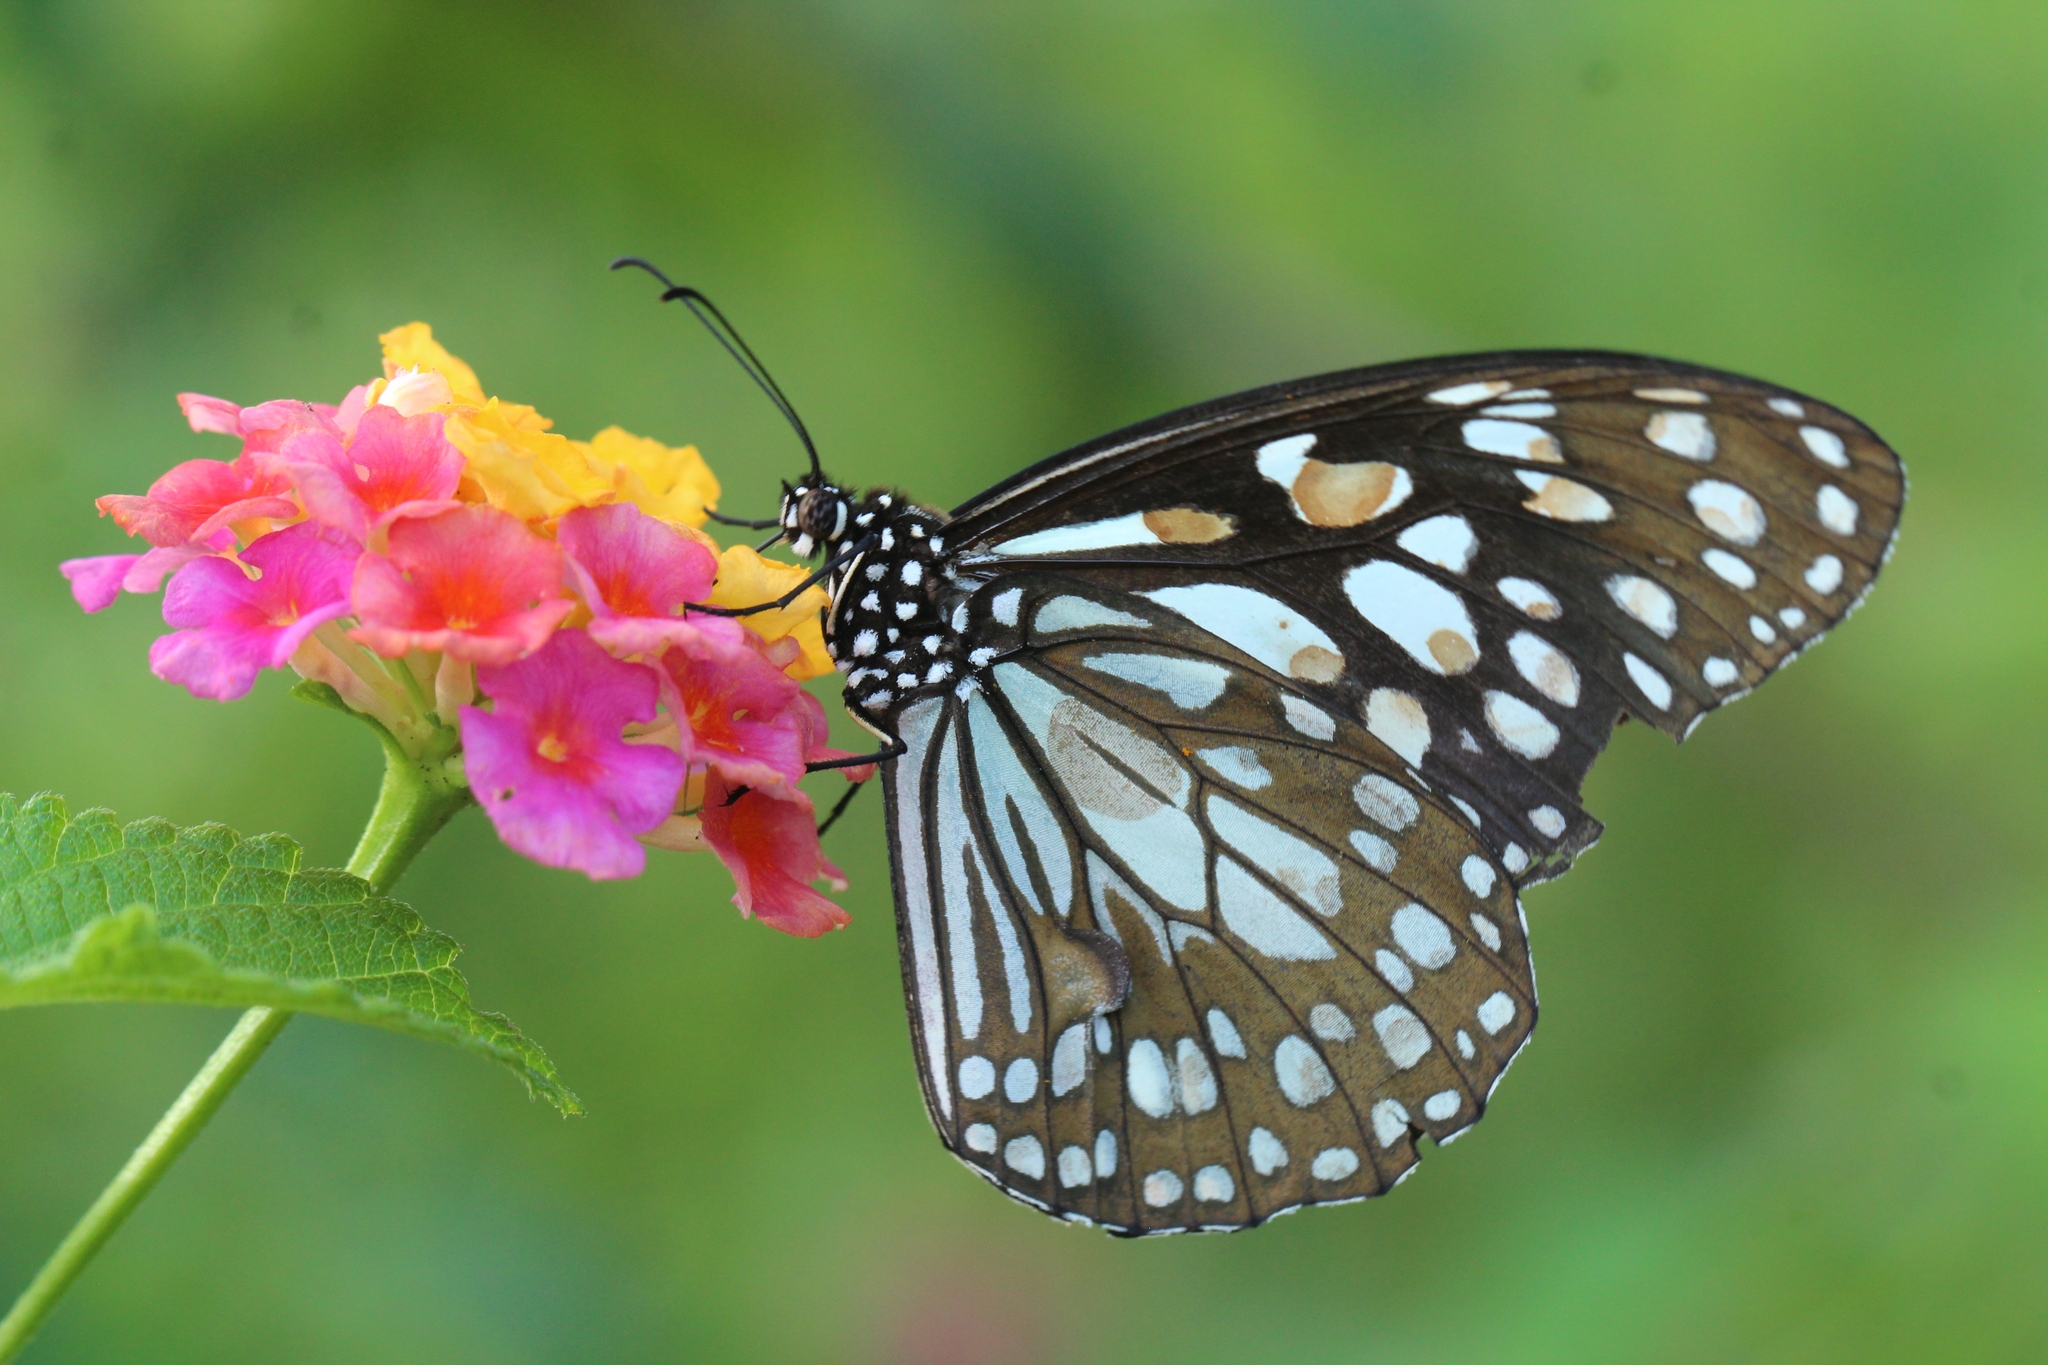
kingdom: Animalia
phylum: Arthropoda
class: Insecta
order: Lepidoptera
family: Nymphalidae
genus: Tirumala
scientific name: Tirumala limniace
